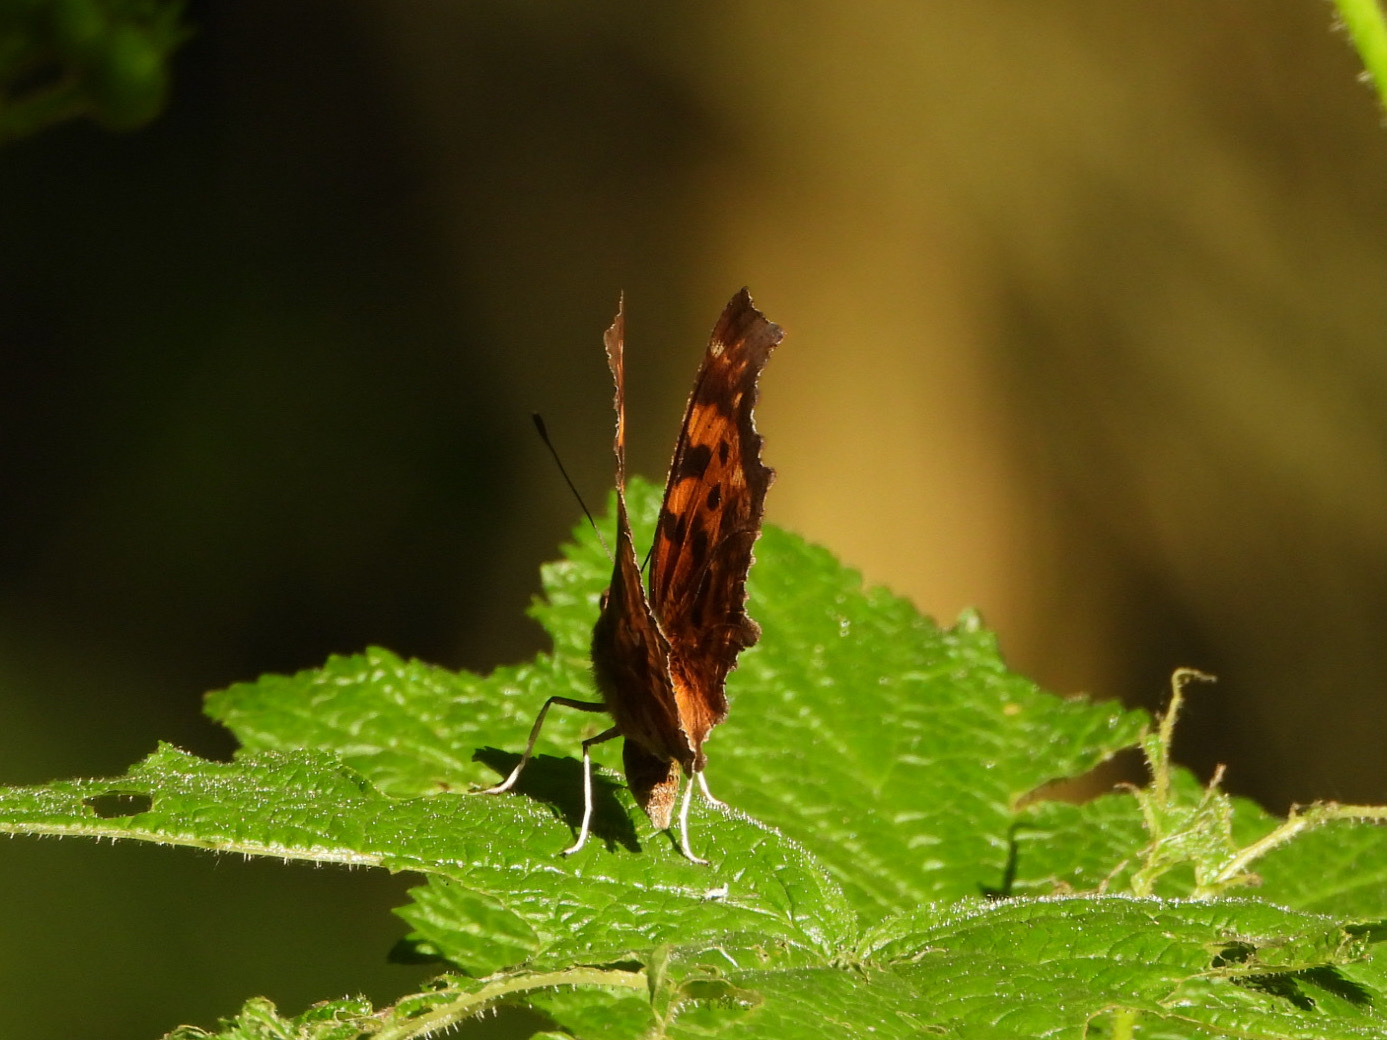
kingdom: Animalia
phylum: Arthropoda
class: Insecta
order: Lepidoptera
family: Nymphalidae
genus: Polygonia
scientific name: Polygonia satyrus
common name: Satyr angle wing
